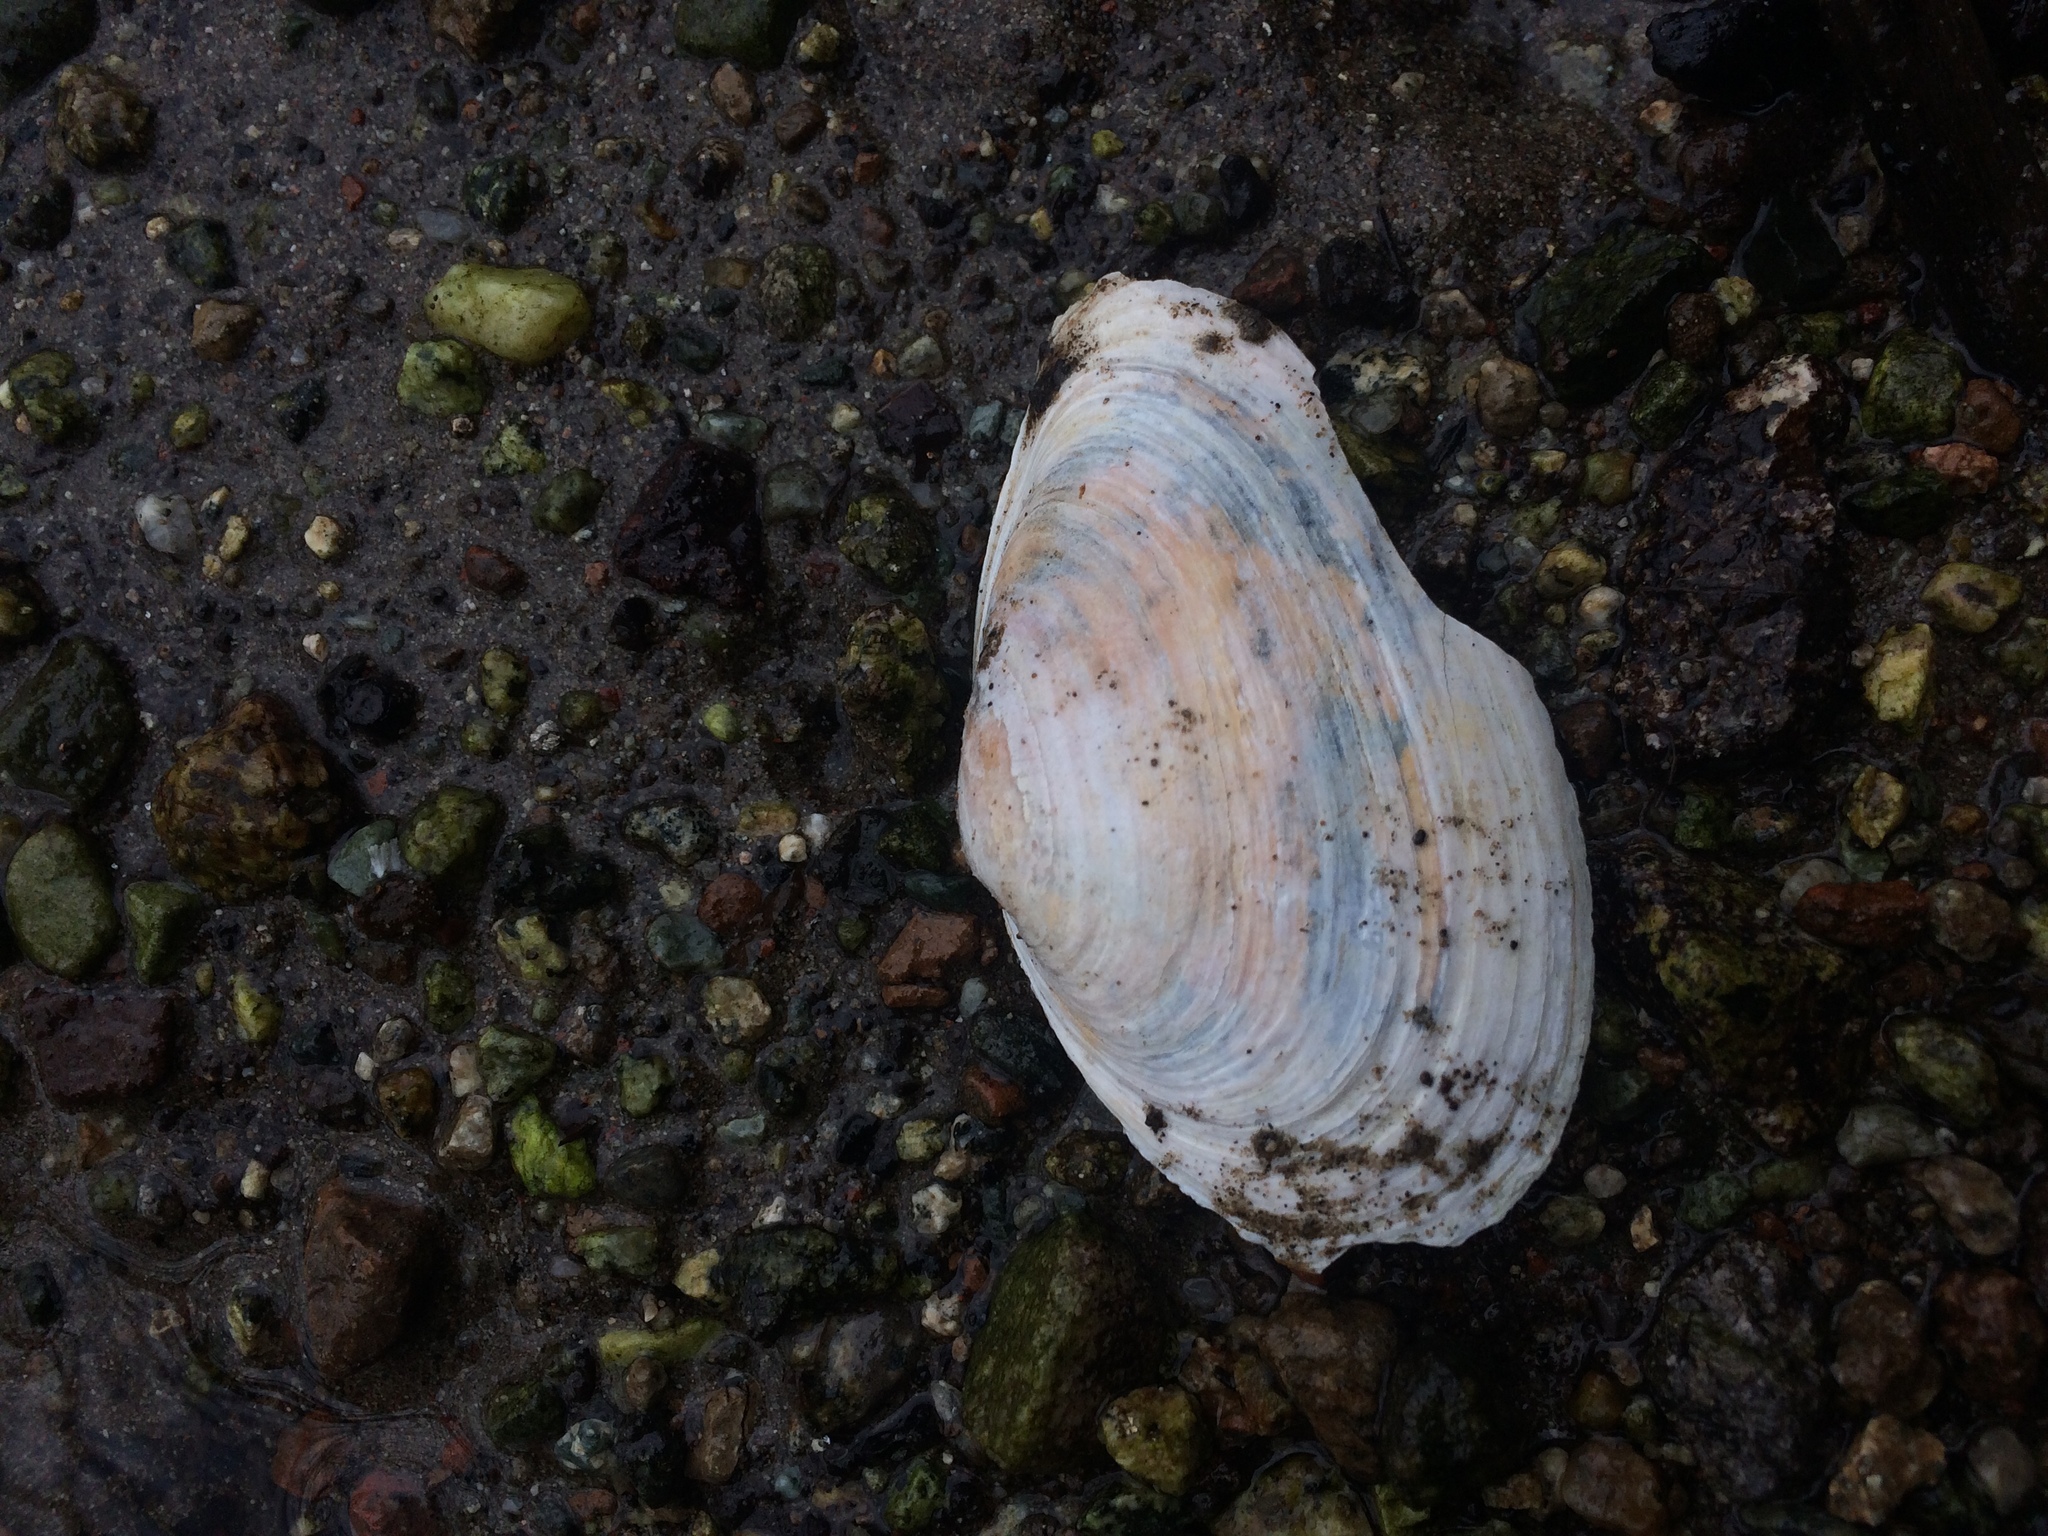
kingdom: Animalia
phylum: Mollusca
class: Bivalvia
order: Myida
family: Myidae
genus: Mya
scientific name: Mya arenaria
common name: Soft-shelled clam
